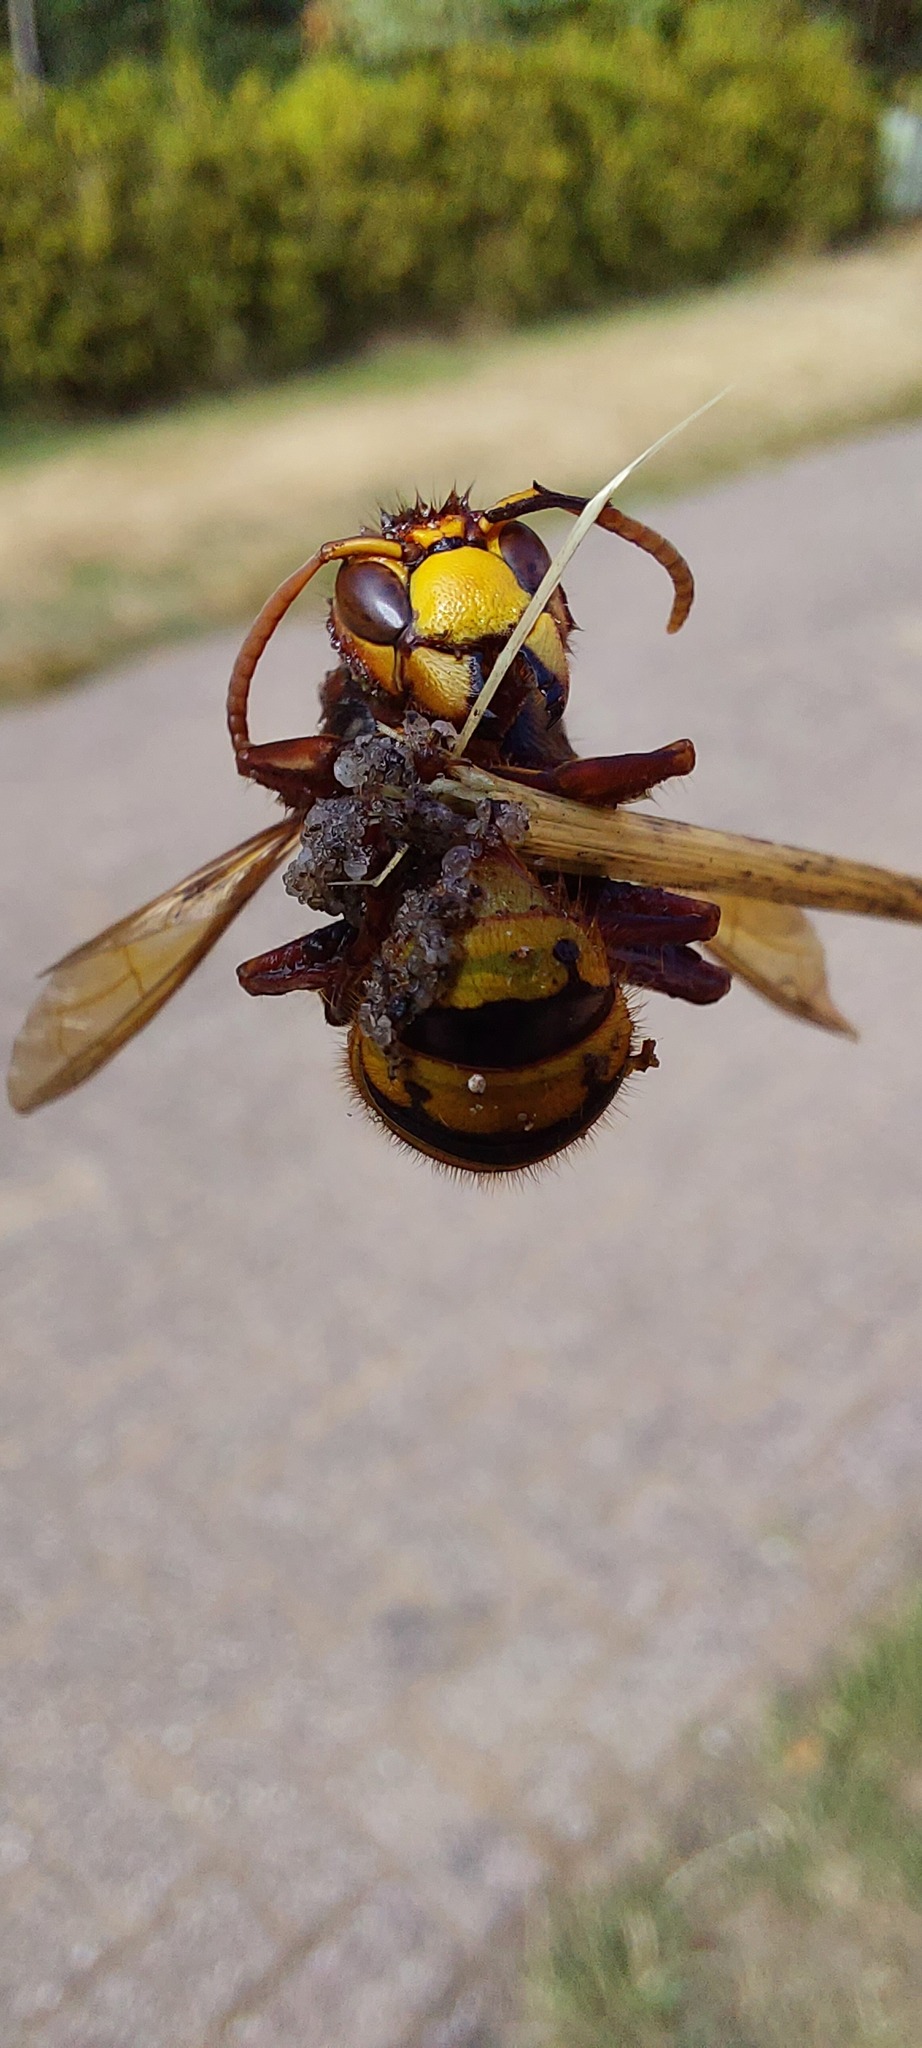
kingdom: Animalia
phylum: Arthropoda
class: Insecta
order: Hymenoptera
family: Vespidae
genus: Vespa
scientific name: Vespa crabro
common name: Hornet
